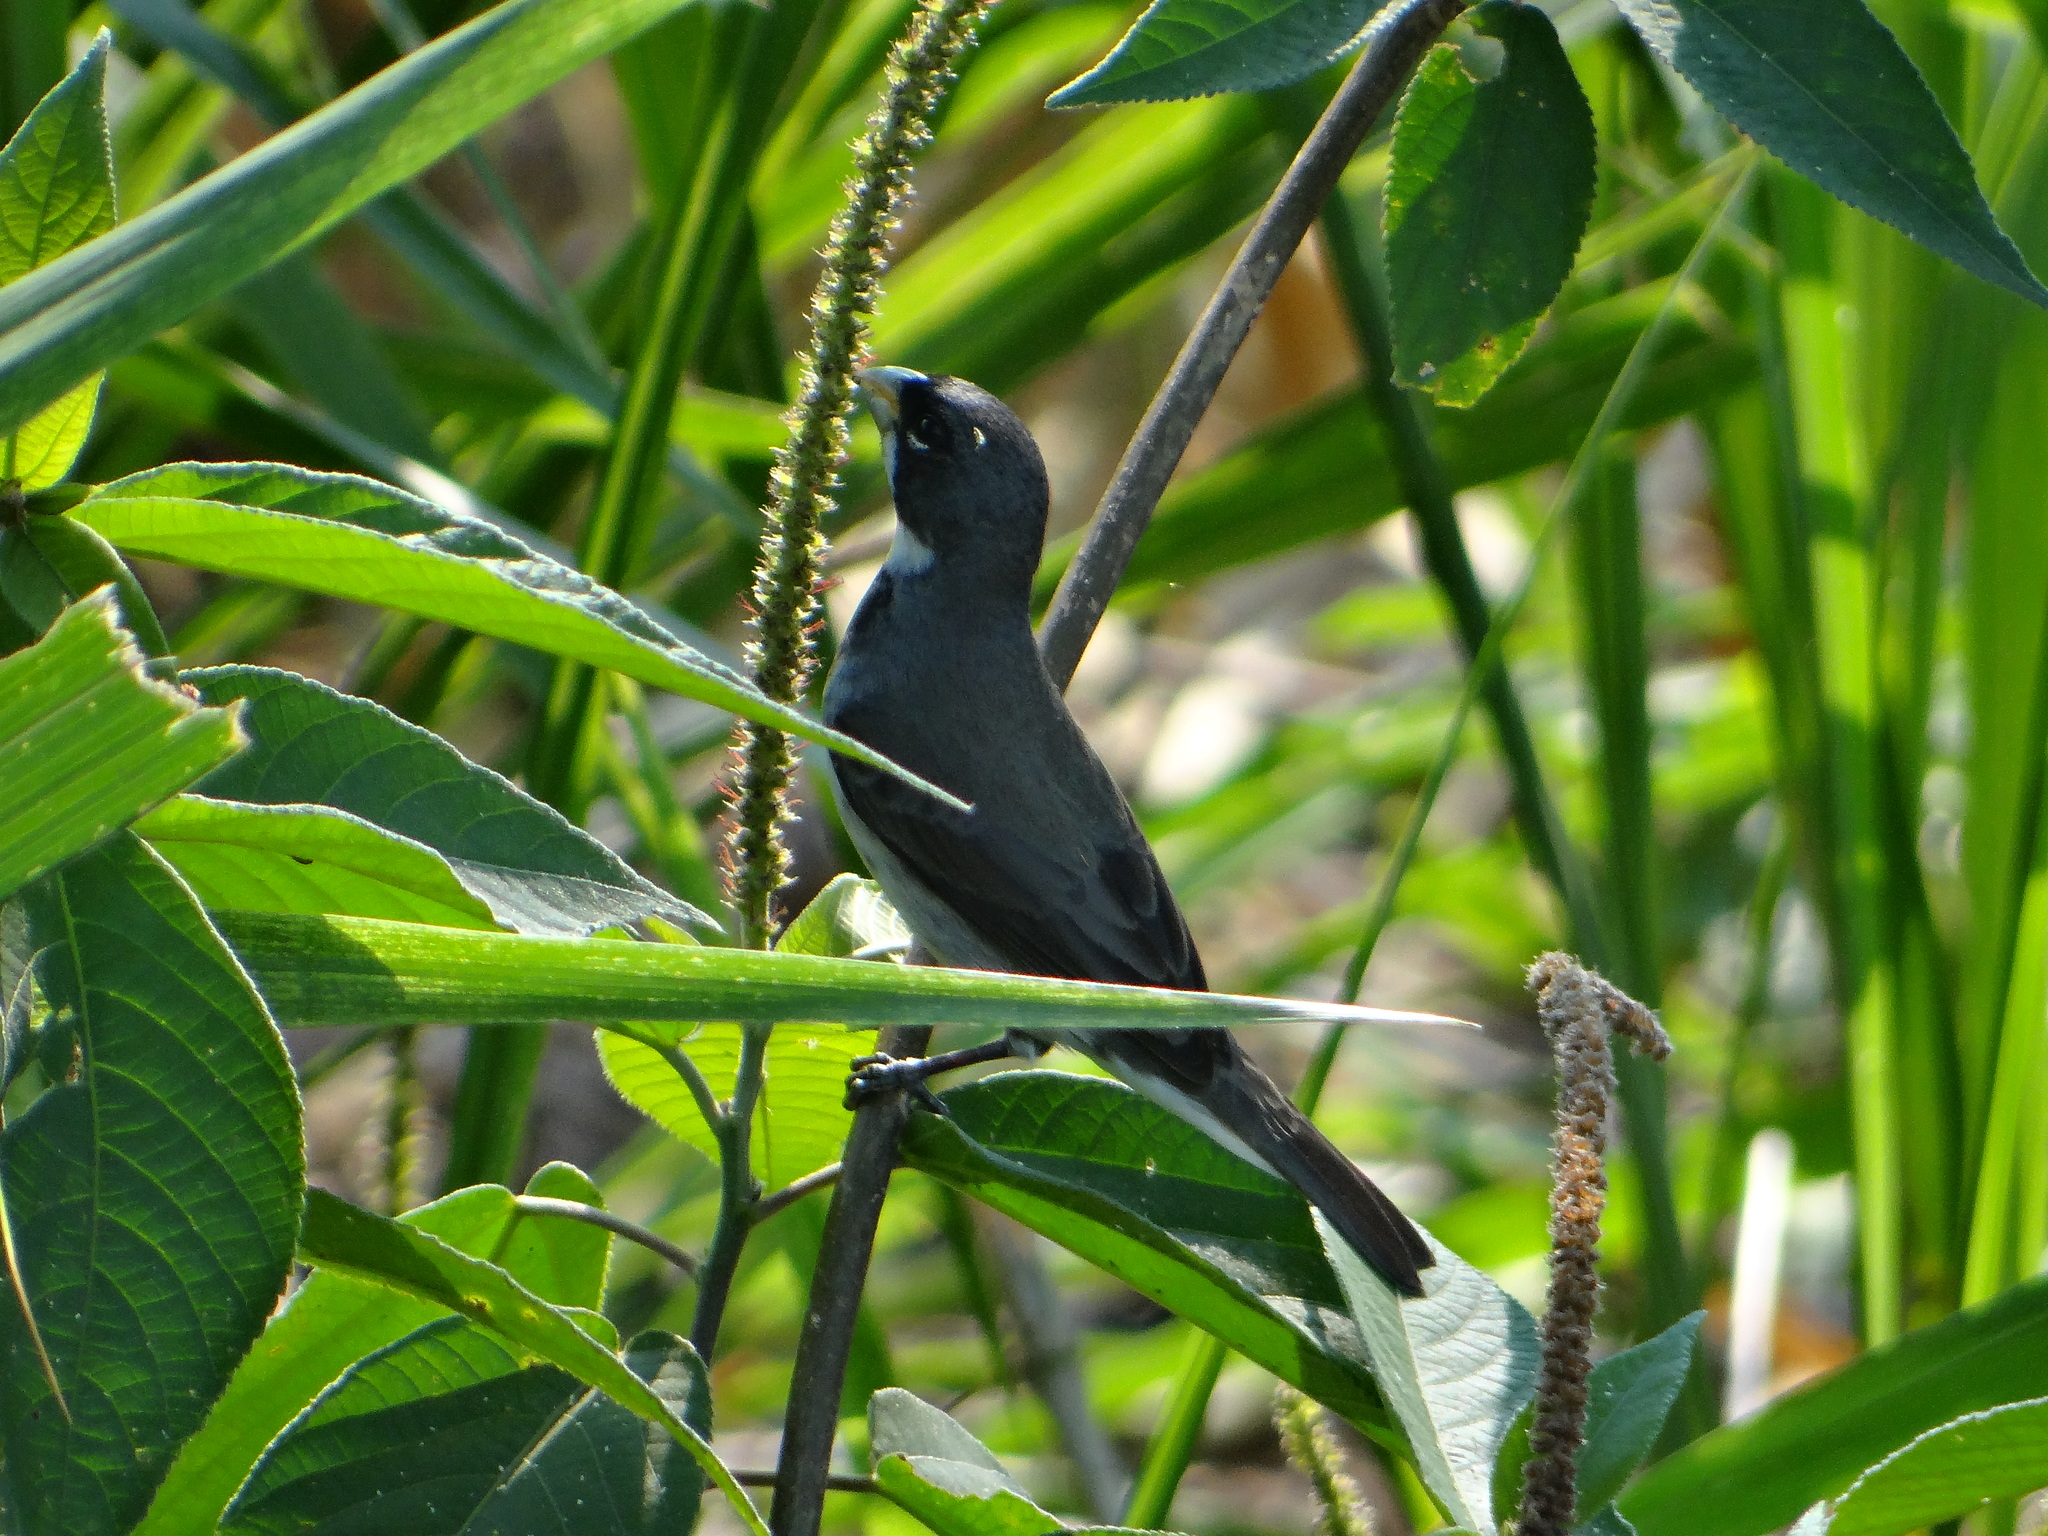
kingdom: Animalia
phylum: Chordata
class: Aves
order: Passeriformes
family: Thraupidae
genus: Sporophila
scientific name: Sporophila caerulescens
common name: Double-collared seedeater
